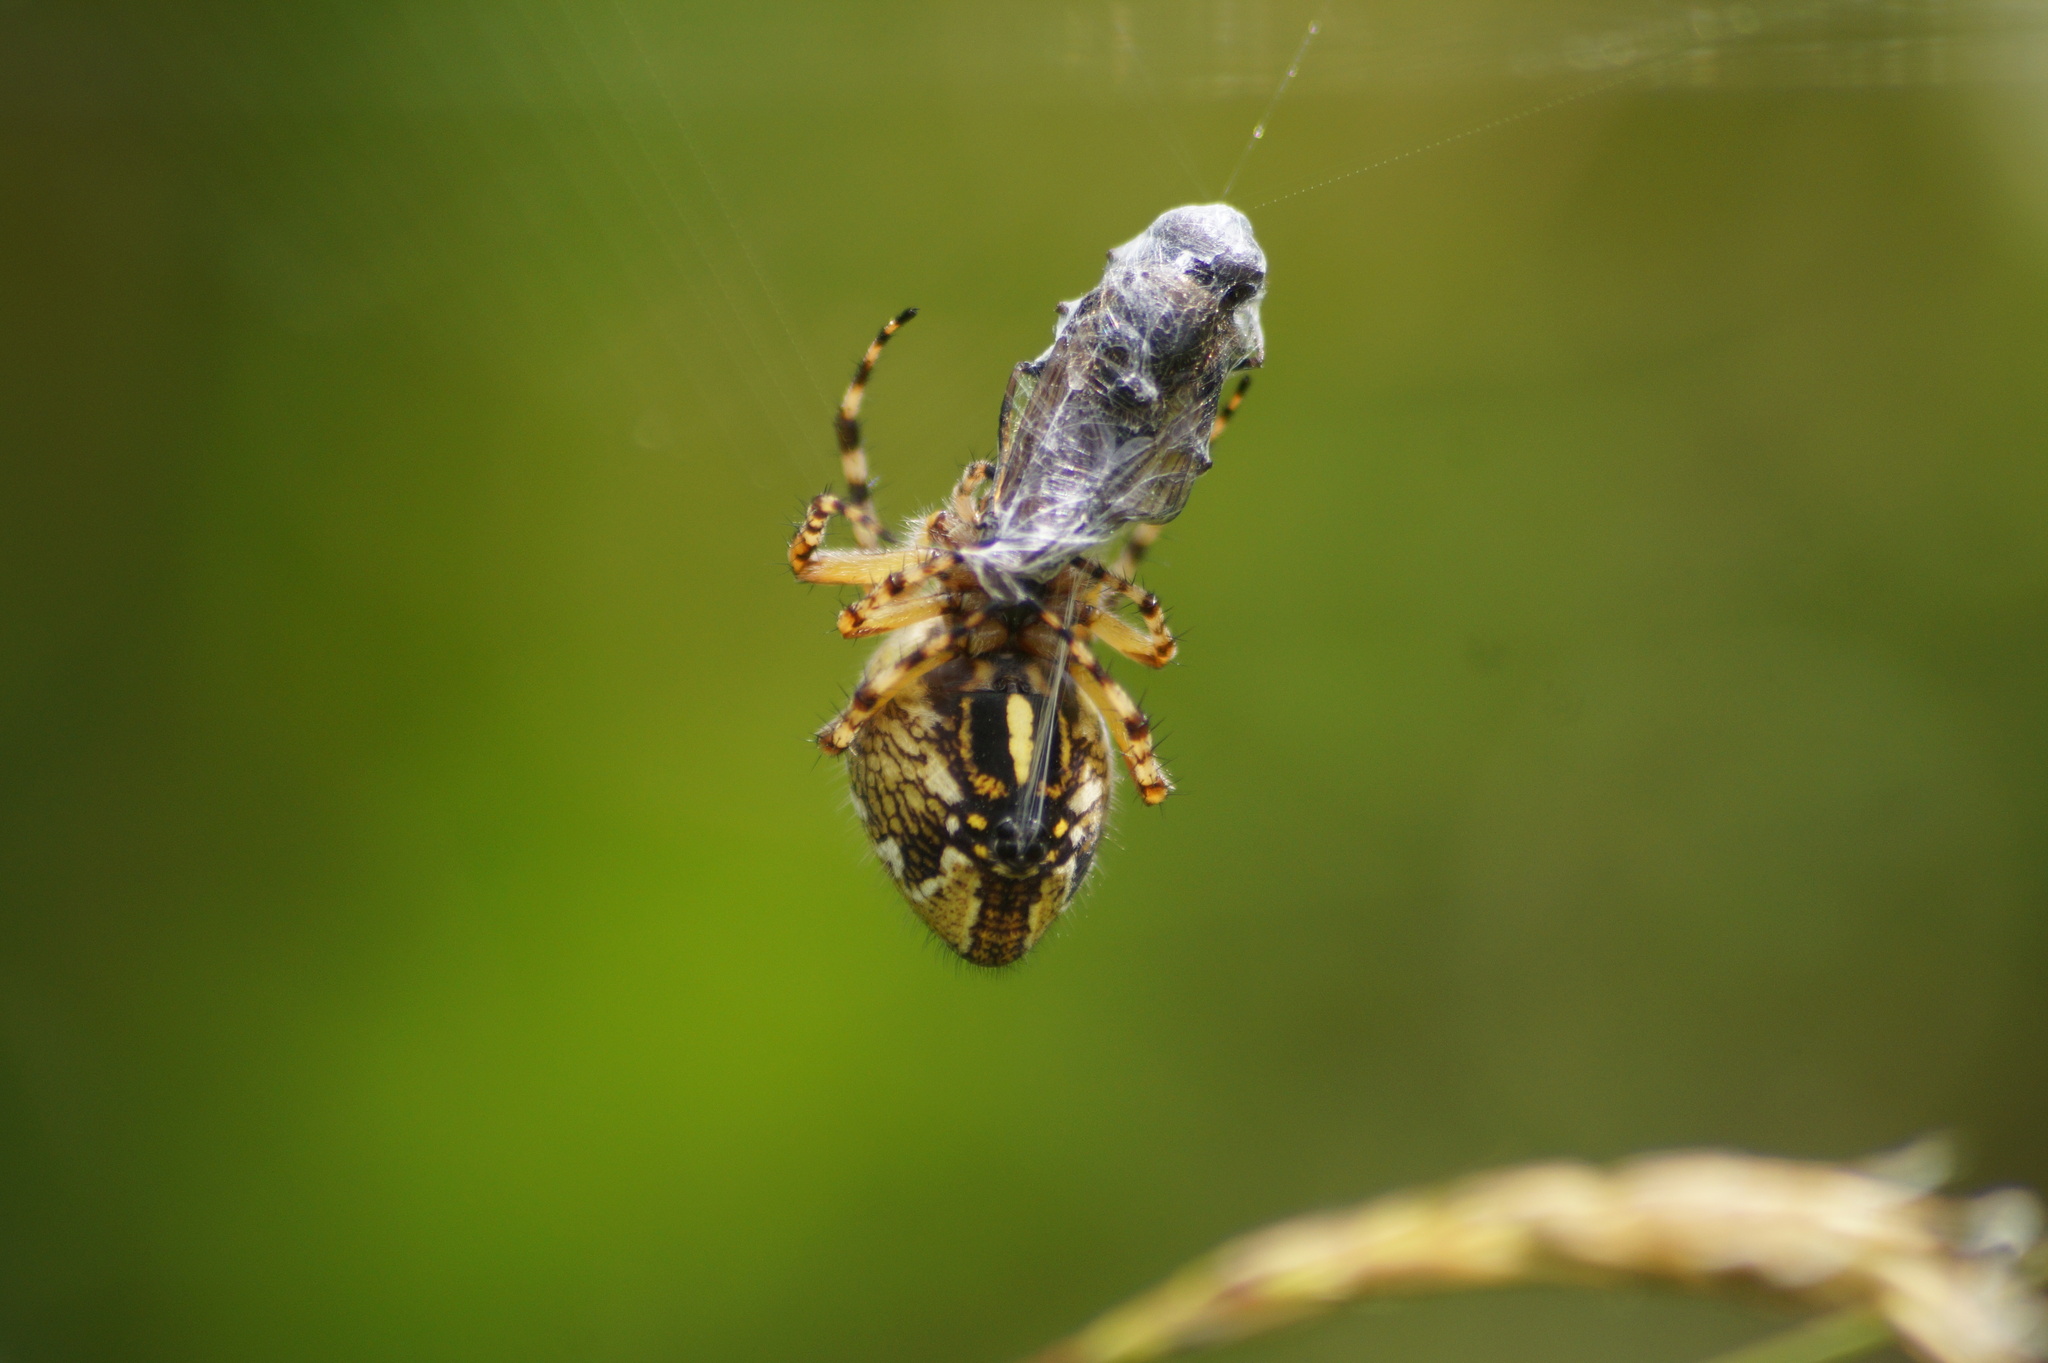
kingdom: Animalia
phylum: Arthropoda
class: Arachnida
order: Araneae
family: Araneidae
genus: Aculepeira
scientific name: Aculepeira ceropegia
